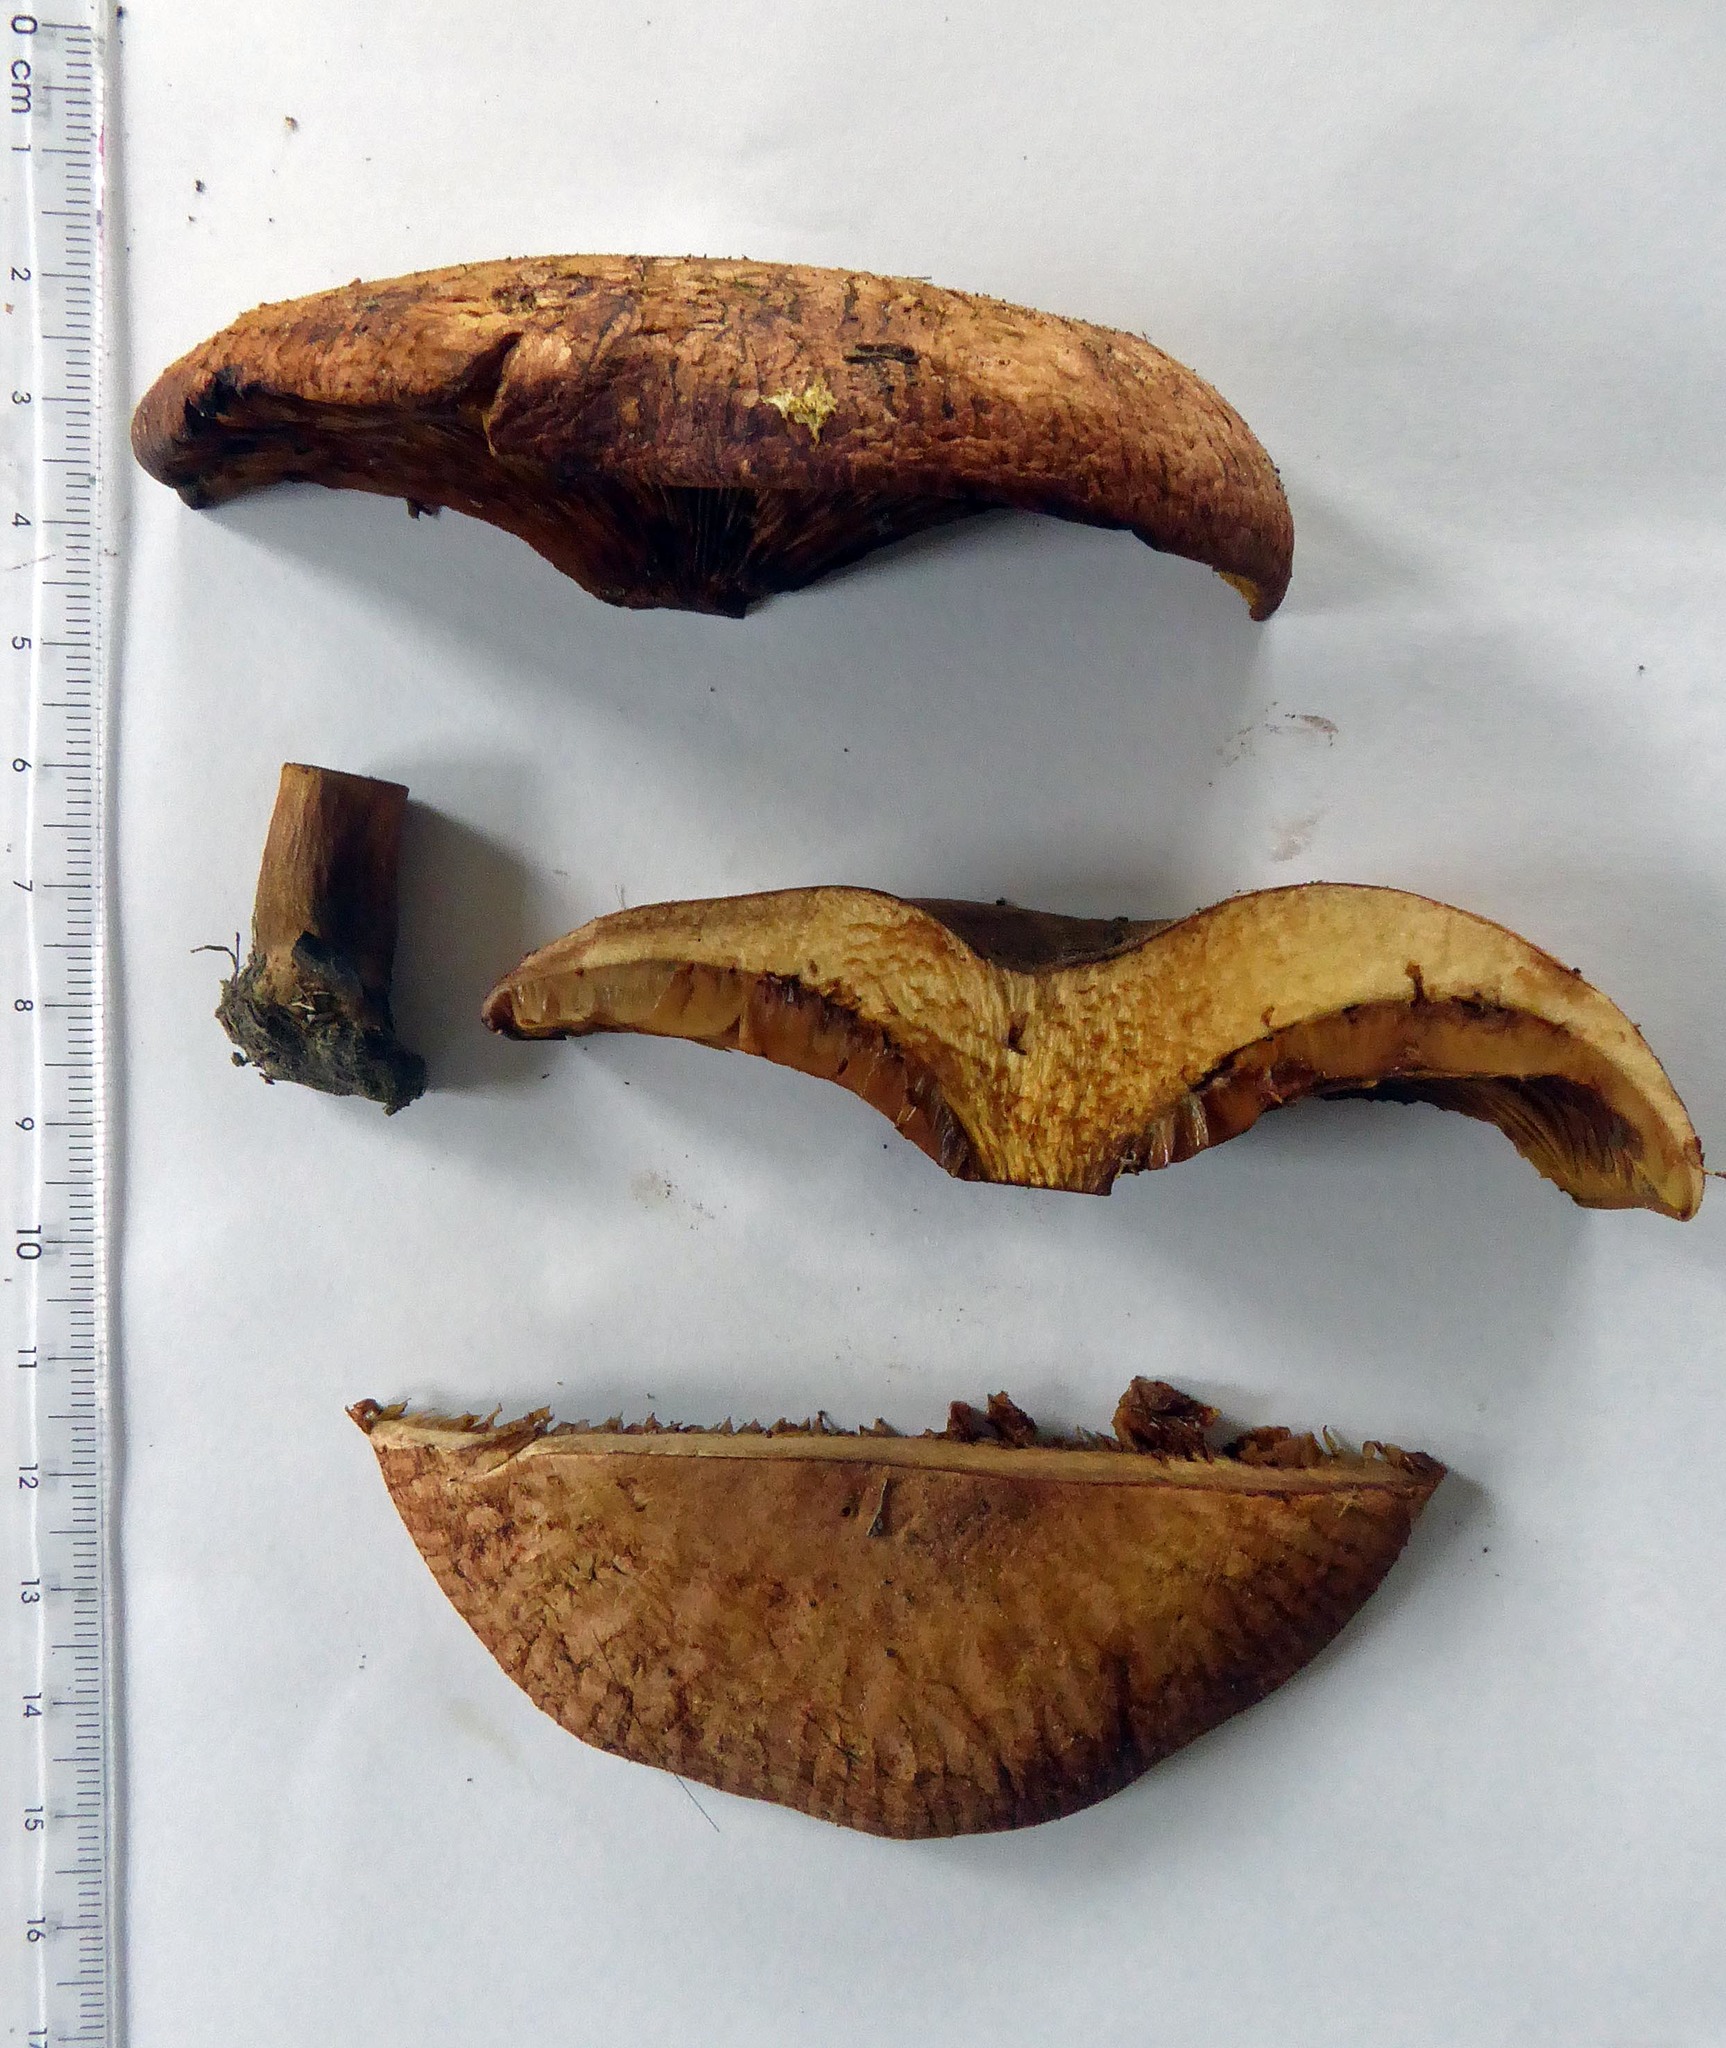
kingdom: Fungi
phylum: Basidiomycota
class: Agaricomycetes
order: Boletales
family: Paxillaceae
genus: Paxillus
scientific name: Paxillus ammoniavirescens
